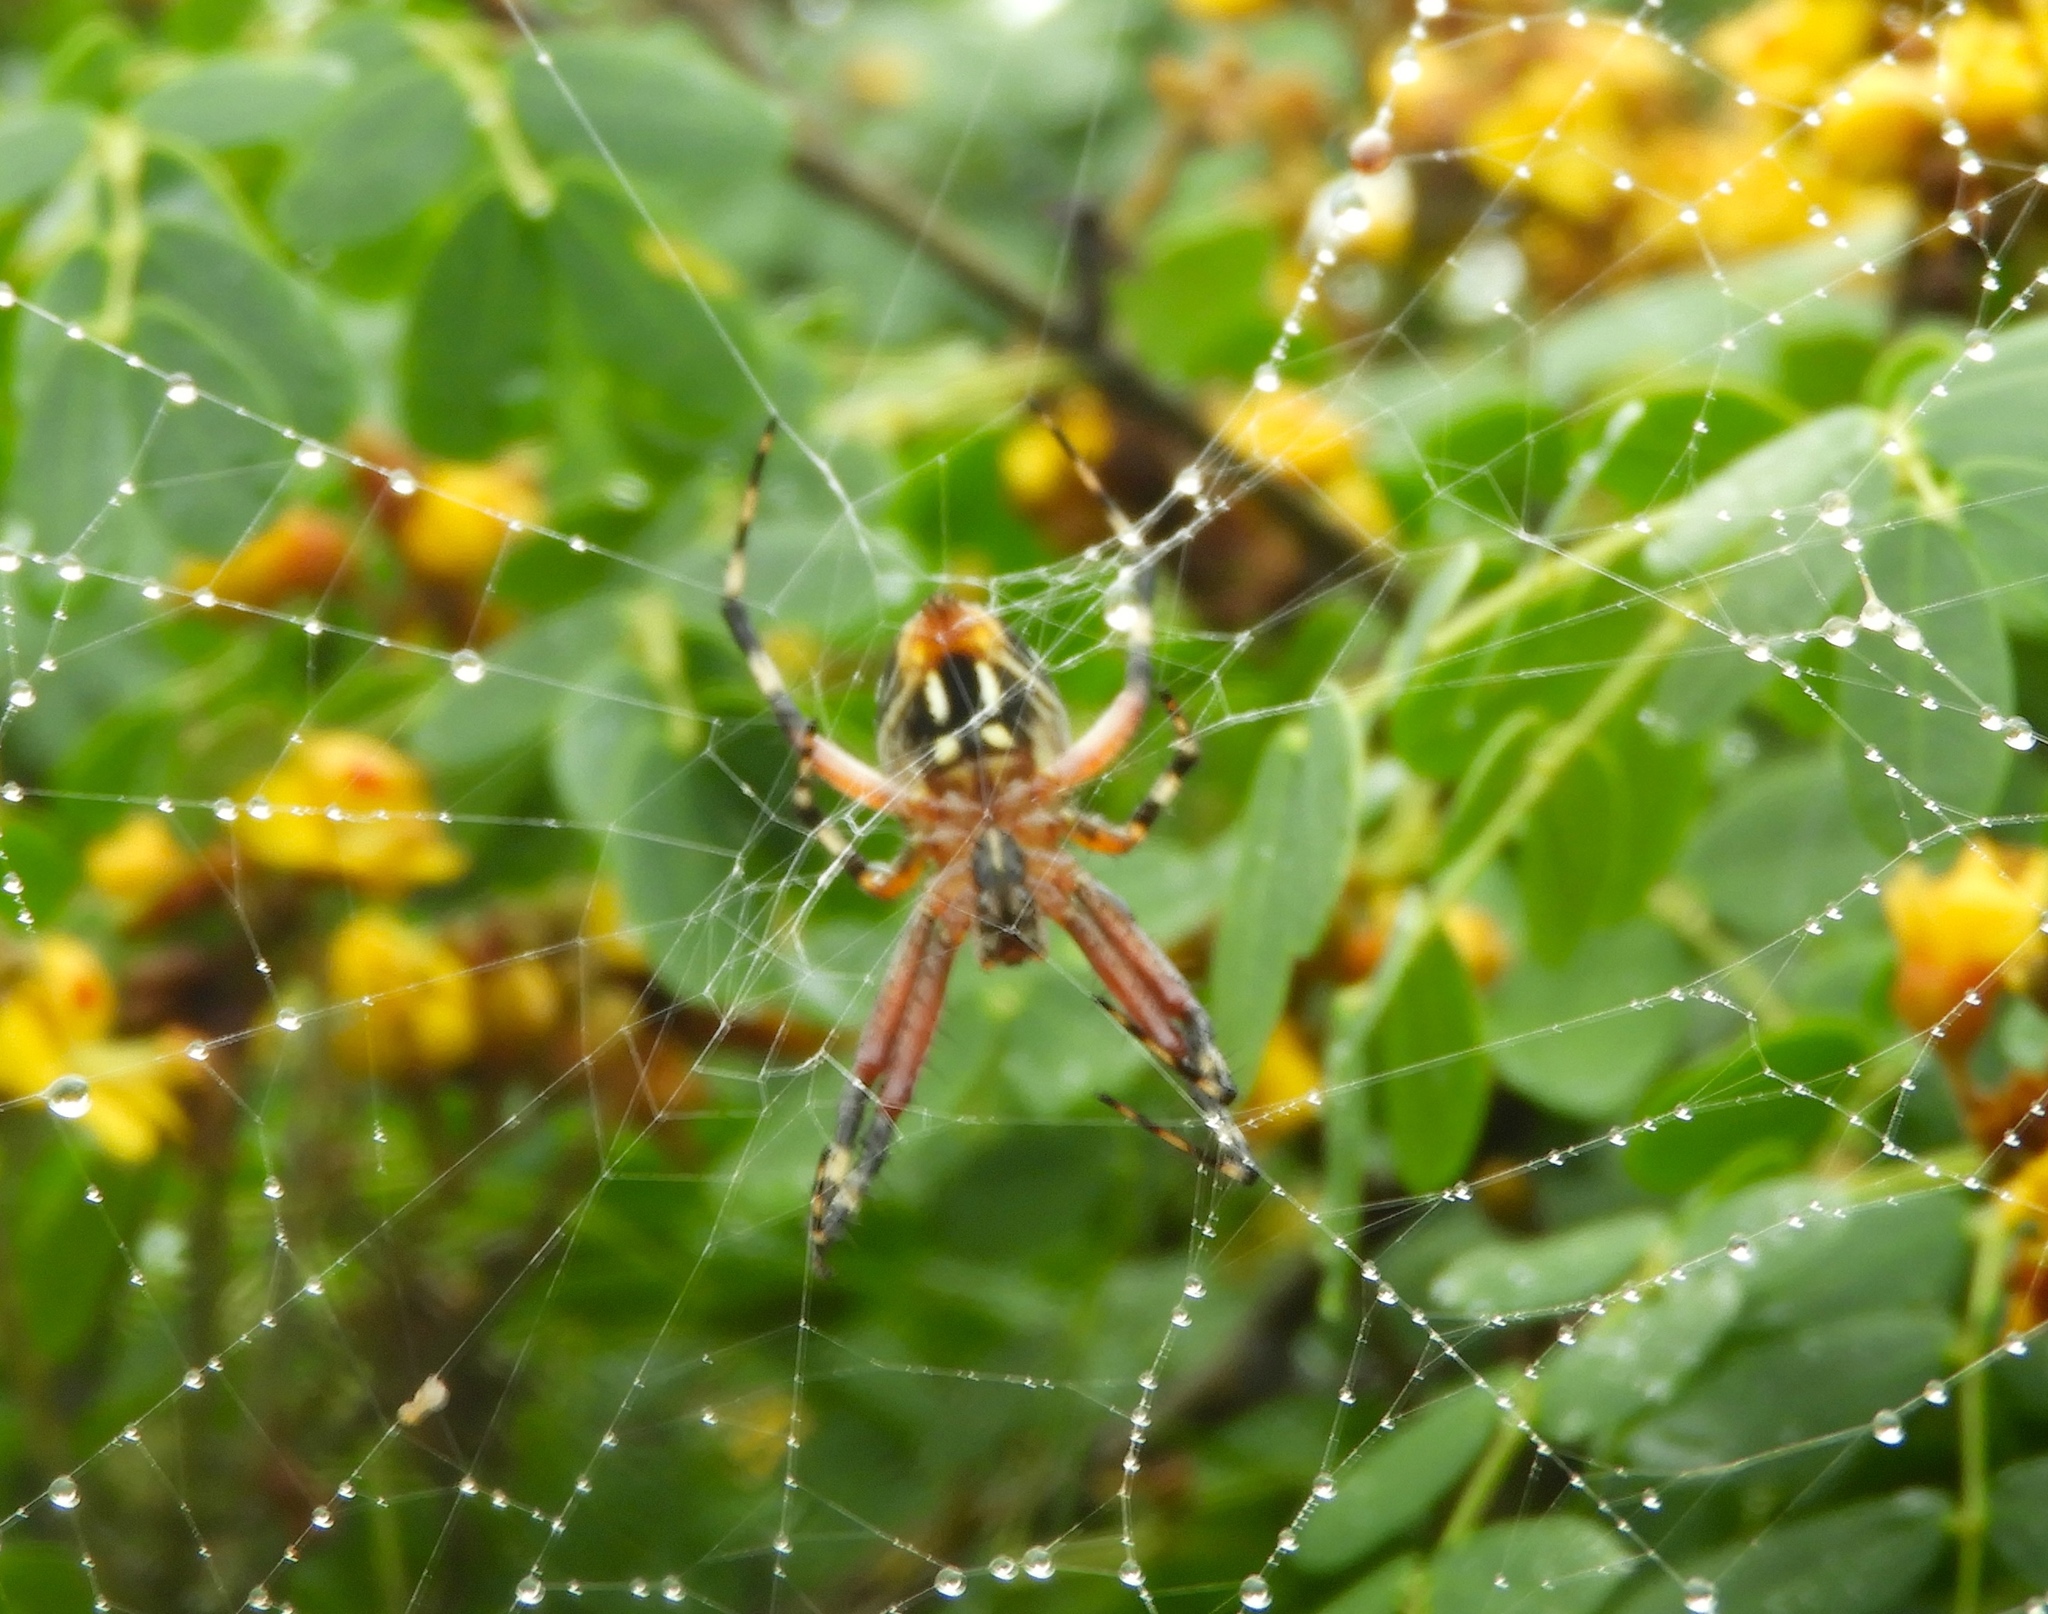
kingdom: Animalia
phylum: Arthropoda
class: Arachnida
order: Araneae
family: Araneidae
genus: Neoscona
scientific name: Neoscona
